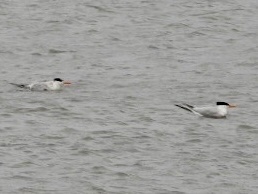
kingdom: Animalia
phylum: Chordata
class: Aves
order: Charadriiformes
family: Laridae
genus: Thalasseus
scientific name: Thalasseus maximus
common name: Royal tern
